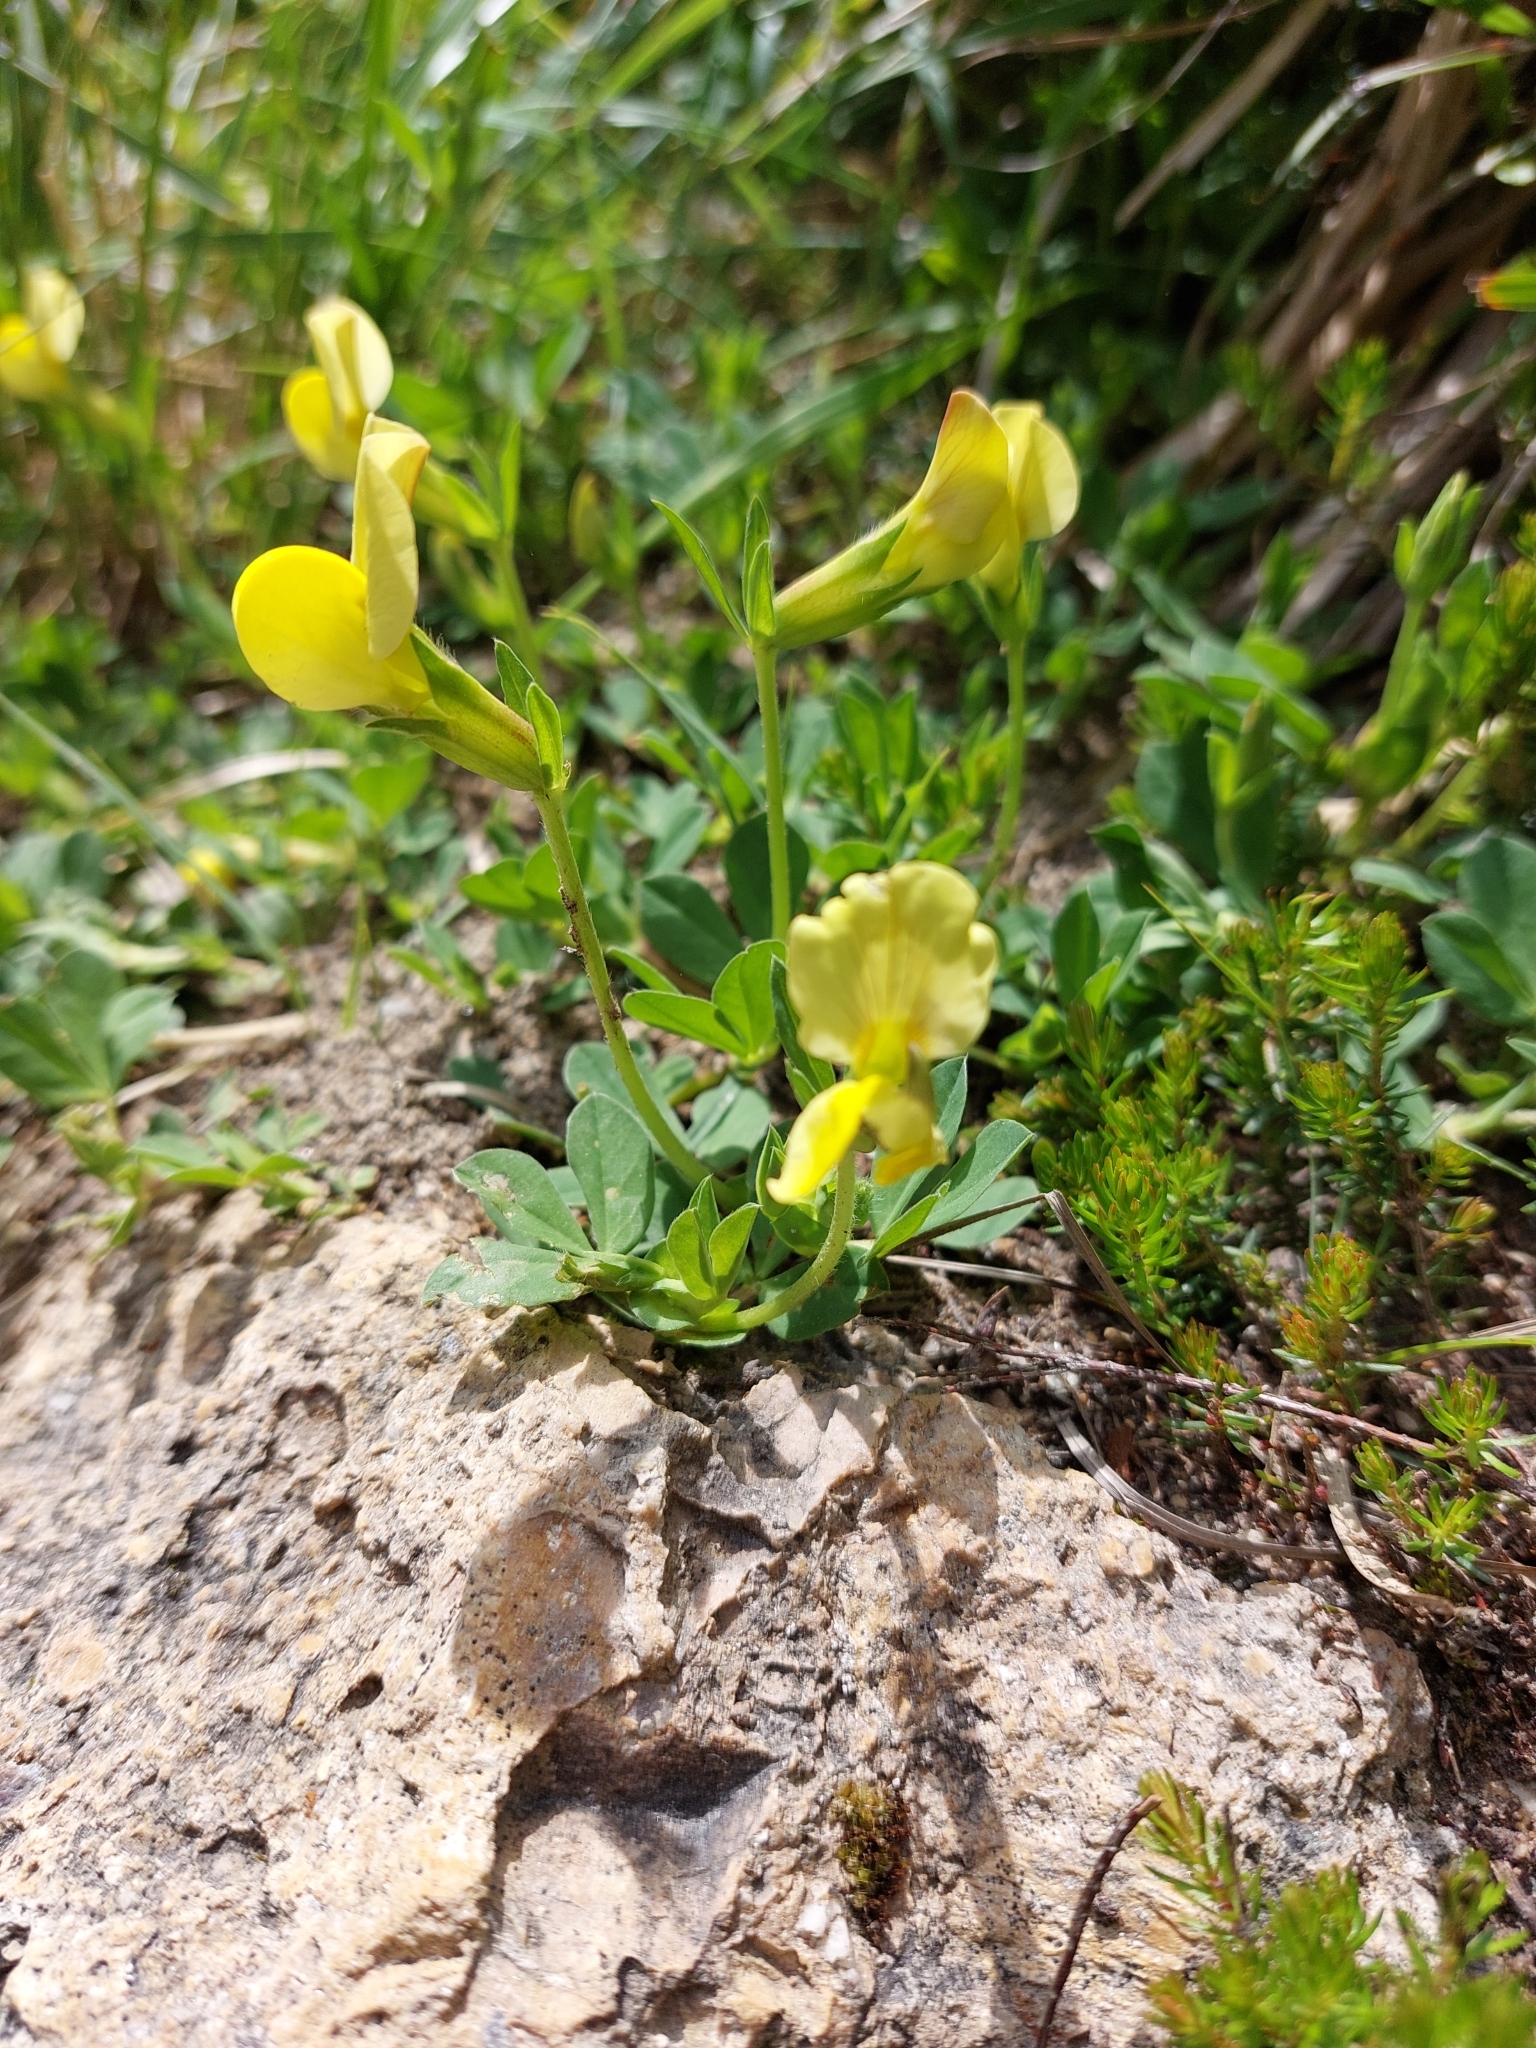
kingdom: Plantae
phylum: Tracheophyta
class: Magnoliopsida
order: Fabales
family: Fabaceae
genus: Lotus
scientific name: Lotus maritimus
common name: Dragon's-teeth
